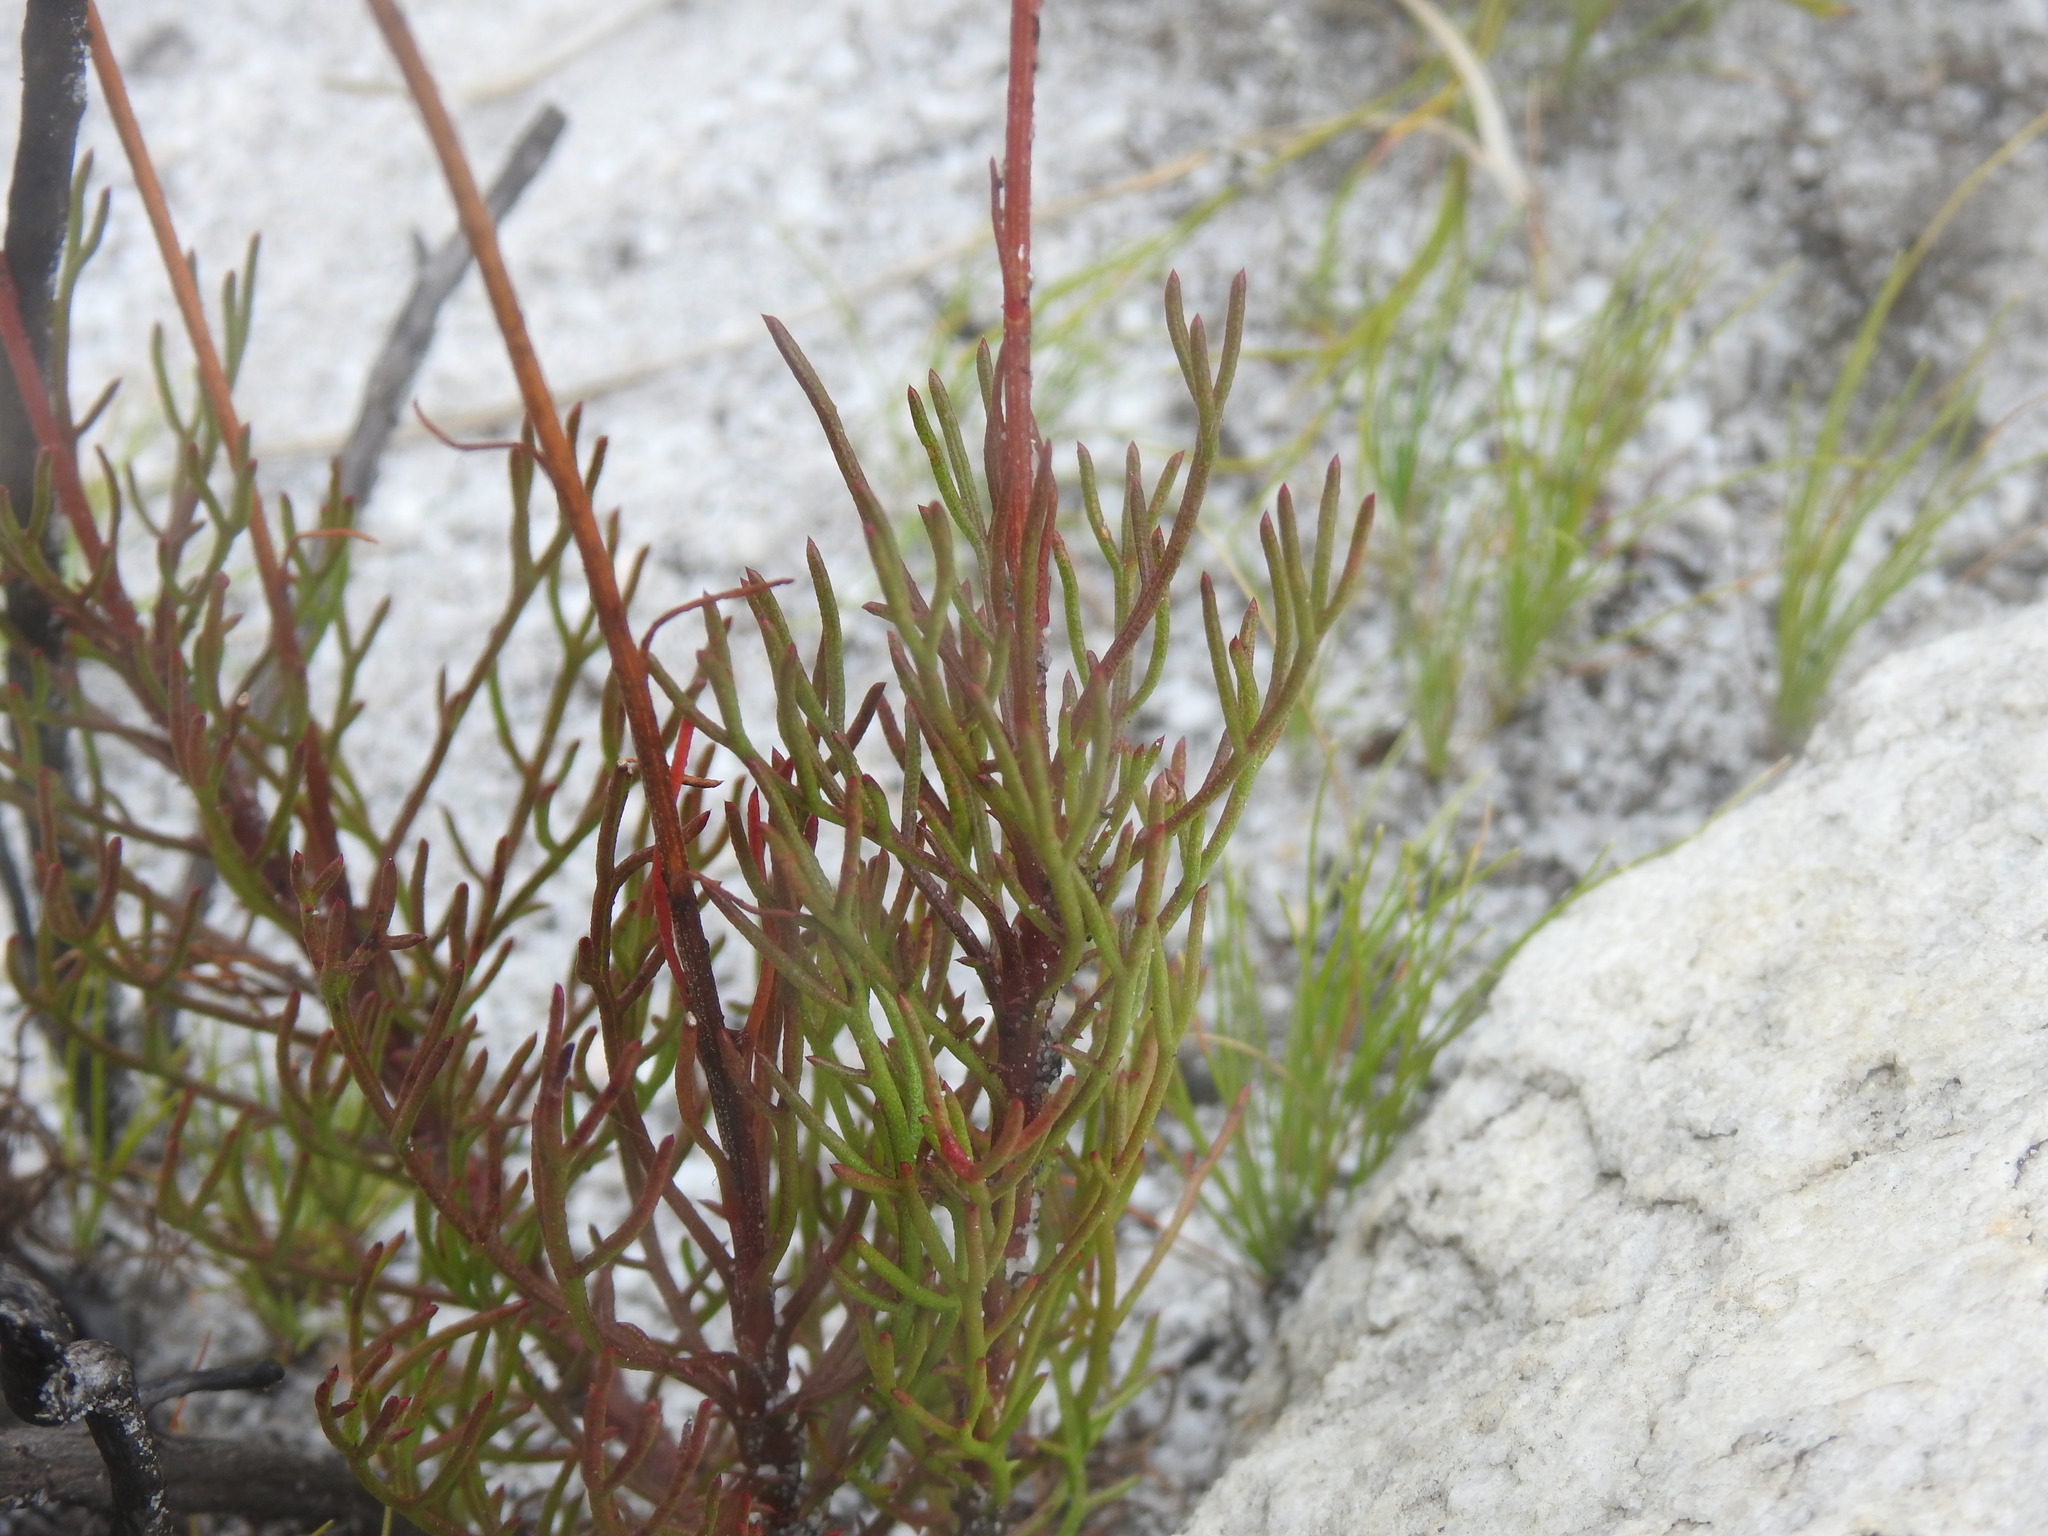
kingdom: Plantae
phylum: Tracheophyta
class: Magnoliopsida
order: Asterales
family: Asteraceae
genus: Ursinia
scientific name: Ursinia paleacea
